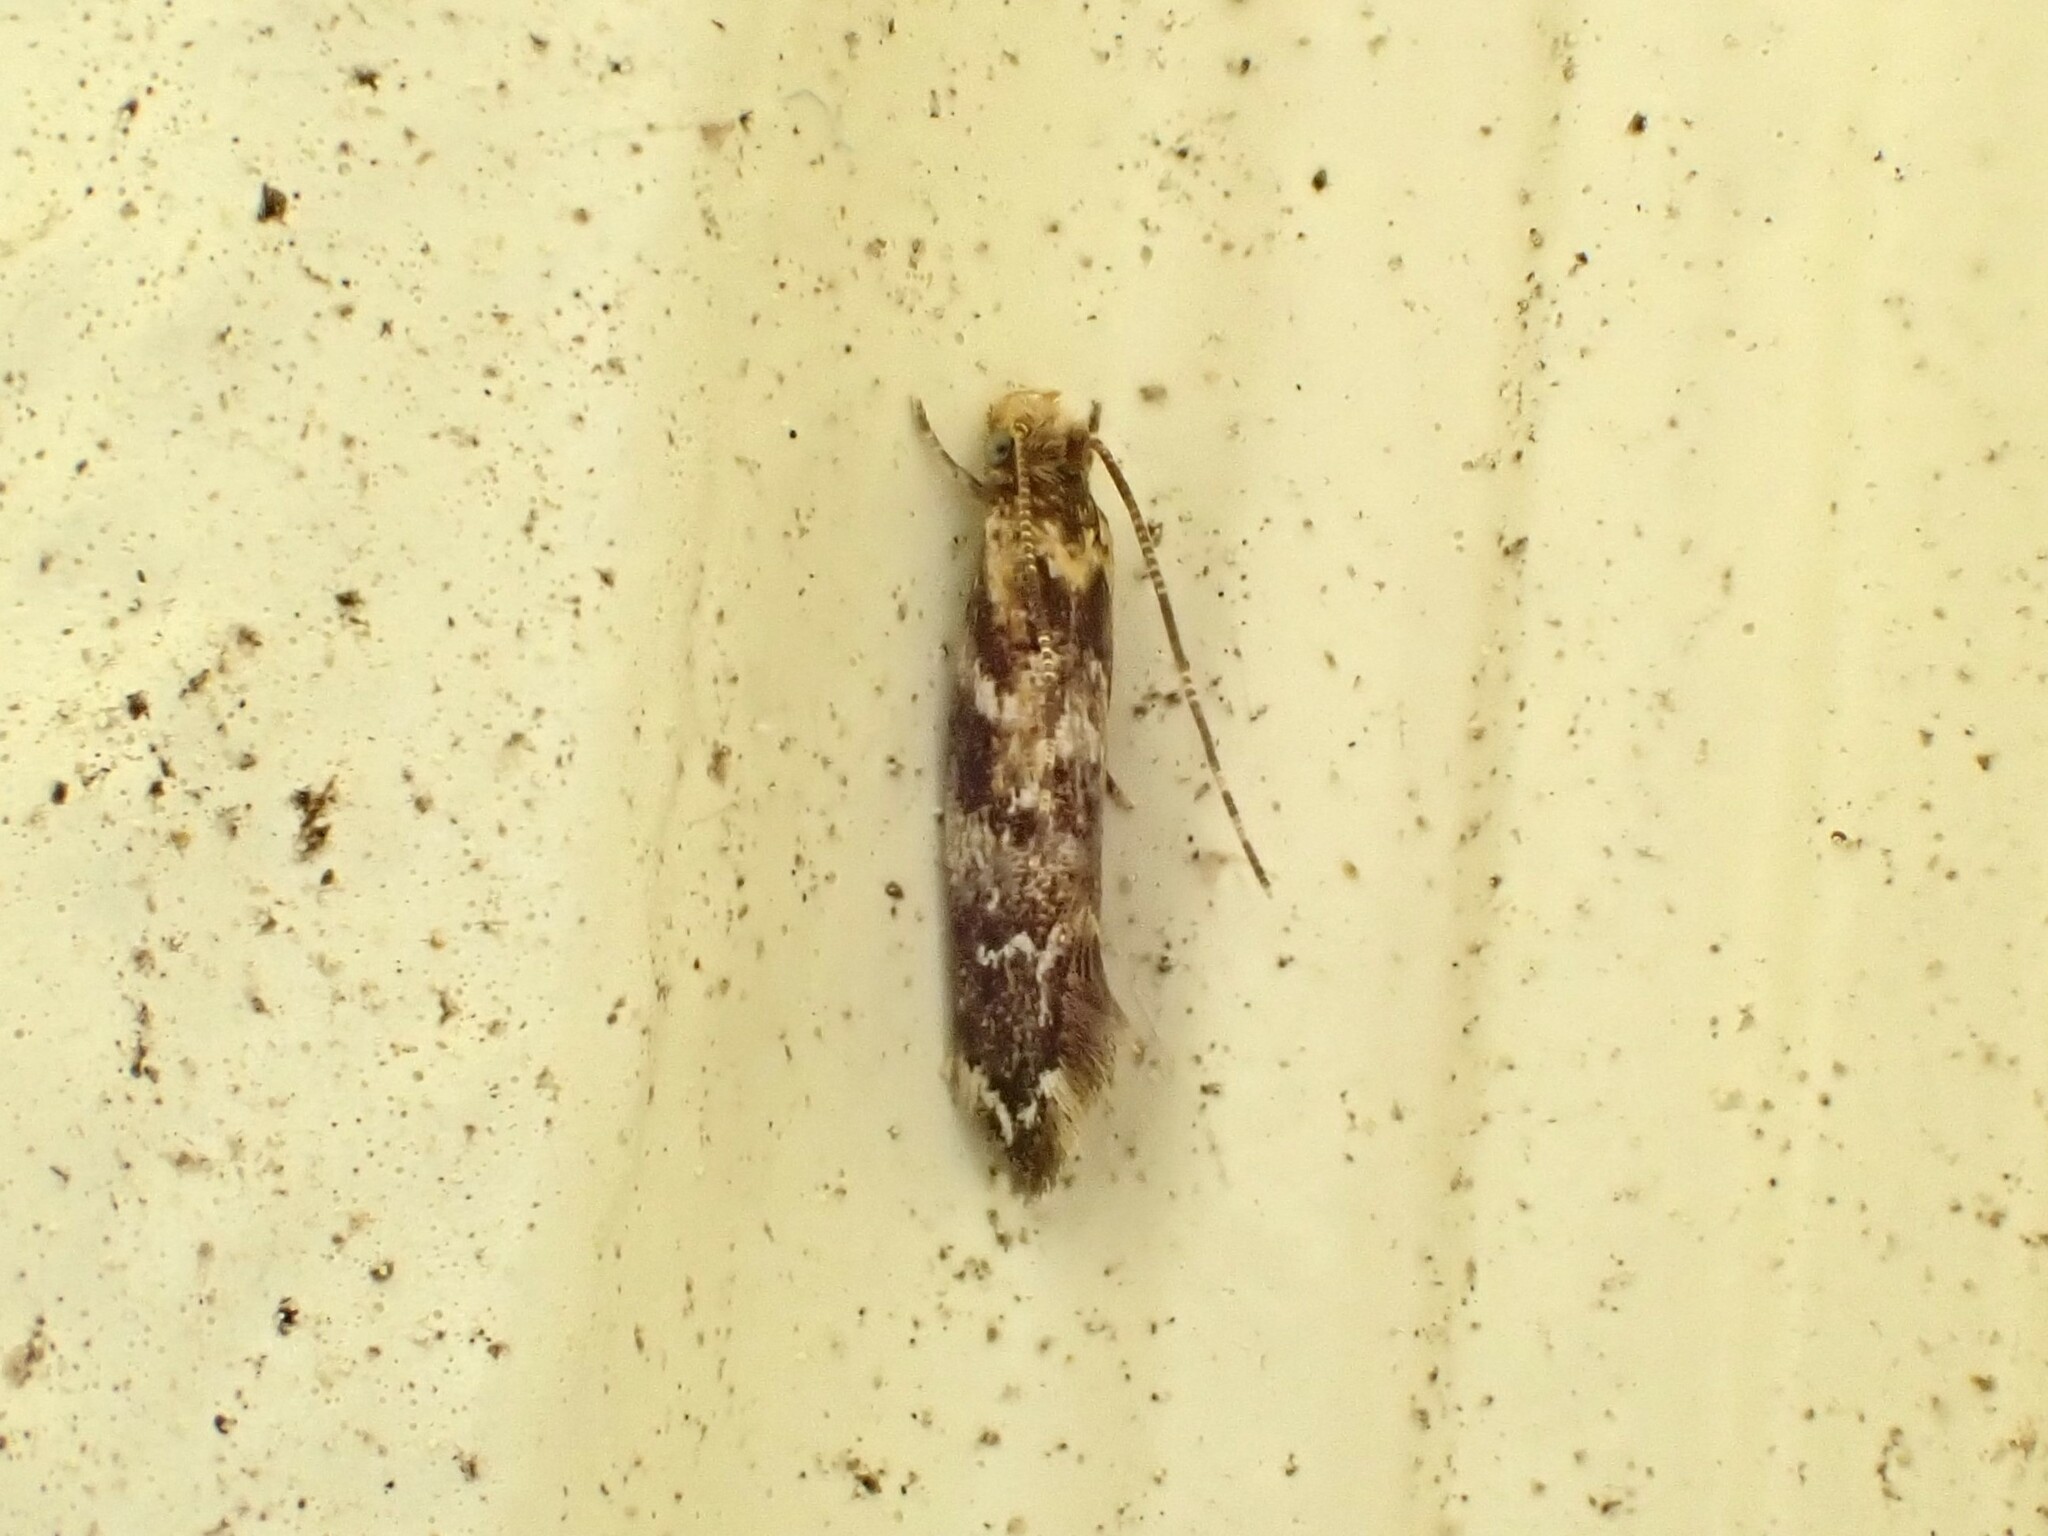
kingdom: Animalia
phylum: Arthropoda
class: Insecta
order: Lepidoptera
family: Dryadaulidae
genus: Dryadaula
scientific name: Dryadaula pactolia
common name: Cellar clothes
